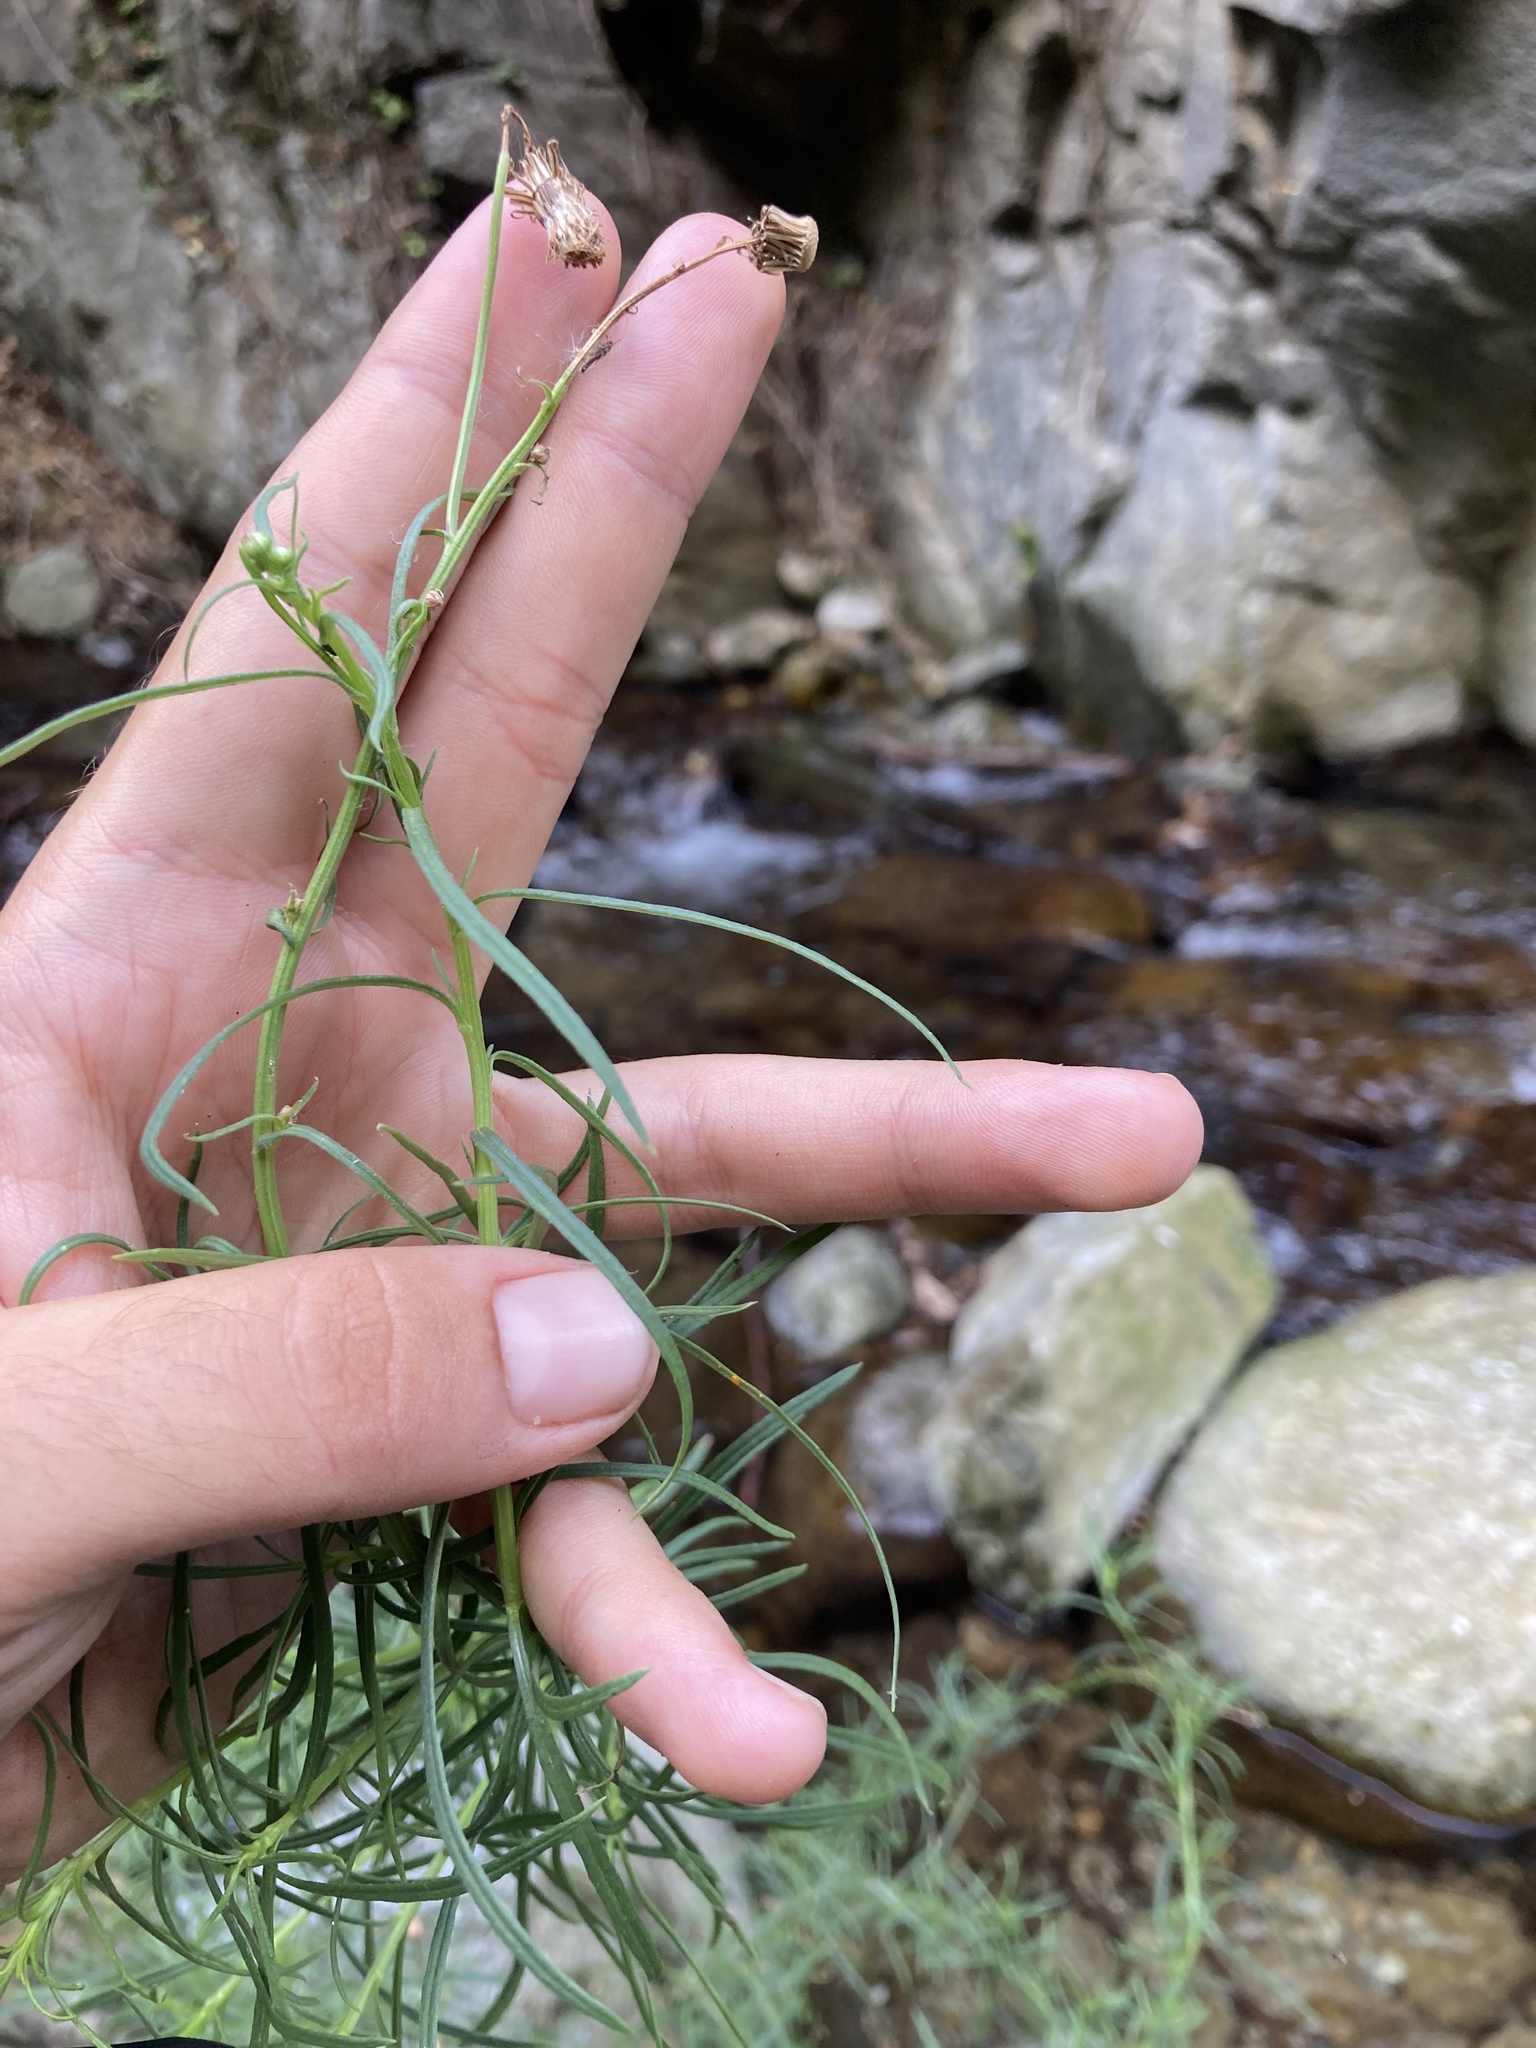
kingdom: Plantae
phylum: Tracheophyta
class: Magnoliopsida
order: Asterales
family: Asteraceae
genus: Senecio
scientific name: Senecio inaequidens
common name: Narrow-leaved ragwort
